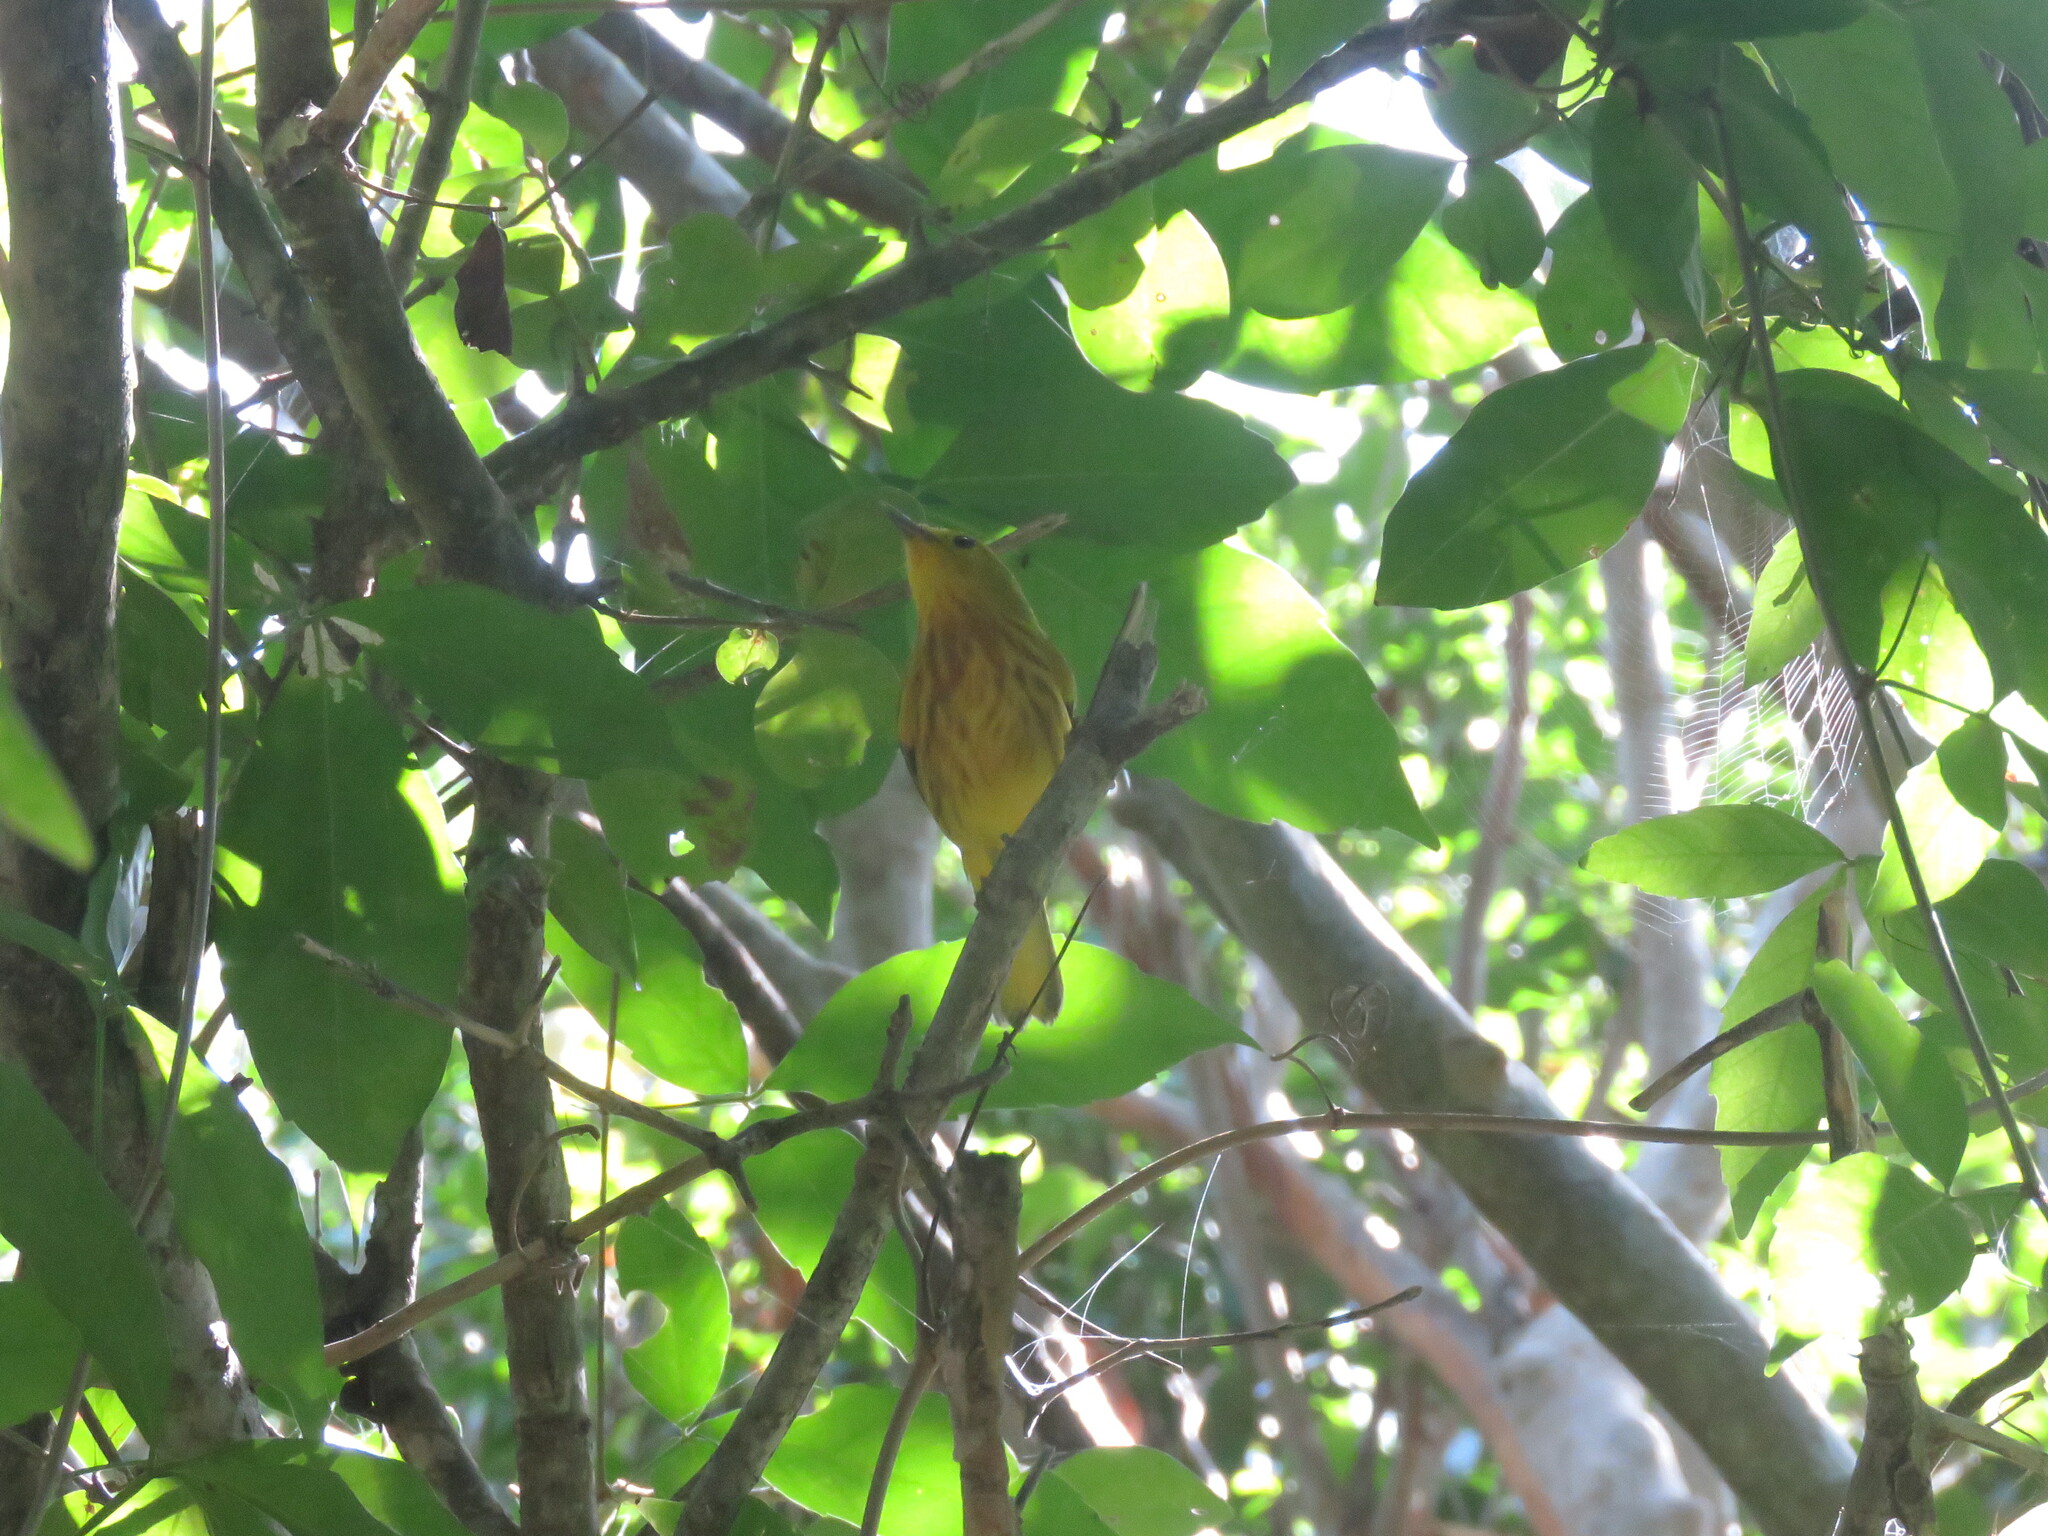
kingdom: Animalia
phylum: Chordata
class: Aves
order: Passeriformes
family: Parulidae
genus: Setophaga
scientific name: Setophaga petechia
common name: Yellow warbler
